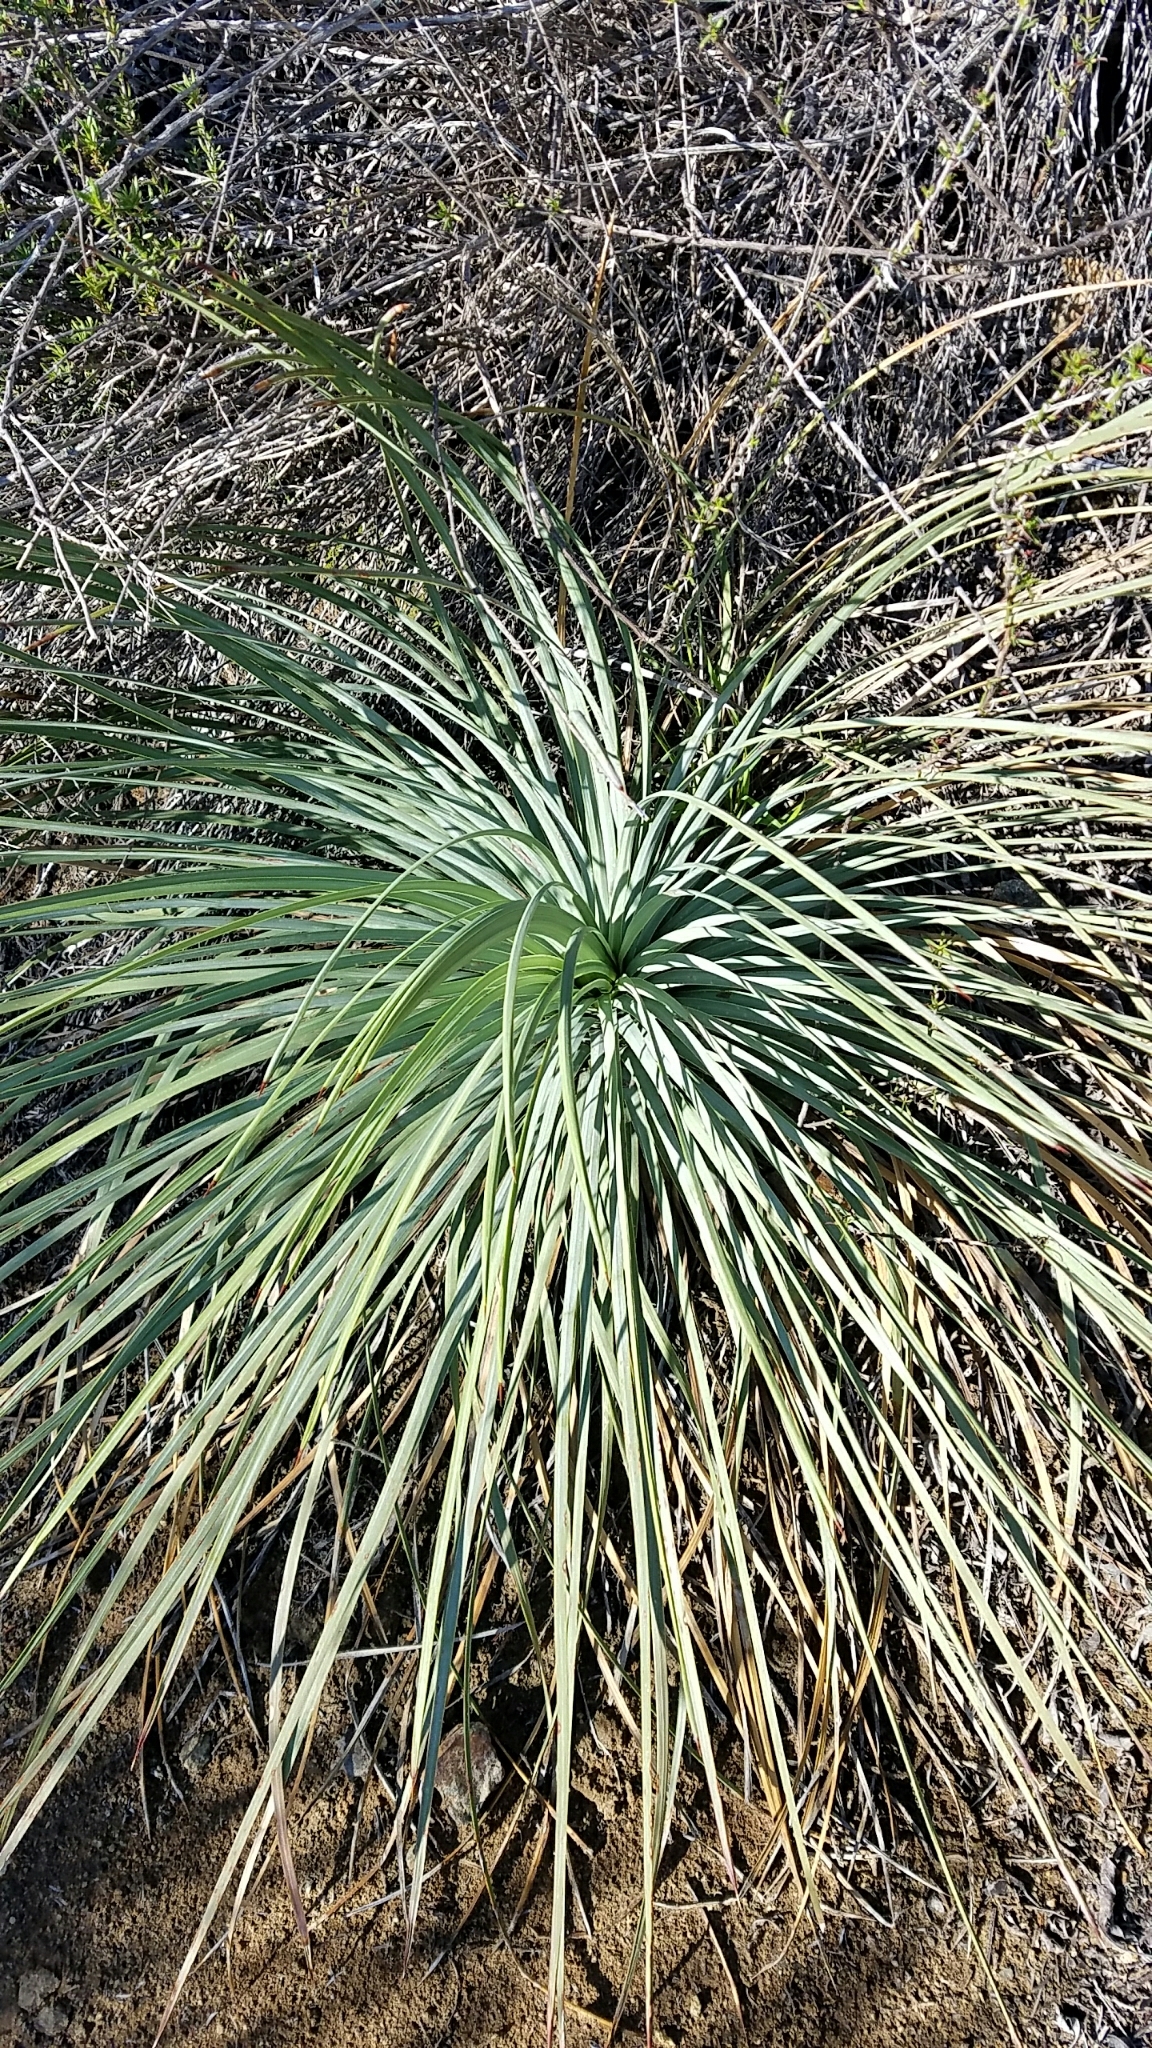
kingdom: Plantae
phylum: Tracheophyta
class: Liliopsida
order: Asparagales
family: Asparagaceae
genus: Hesperoyucca
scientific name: Hesperoyucca whipplei
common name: Our lord's-candle
